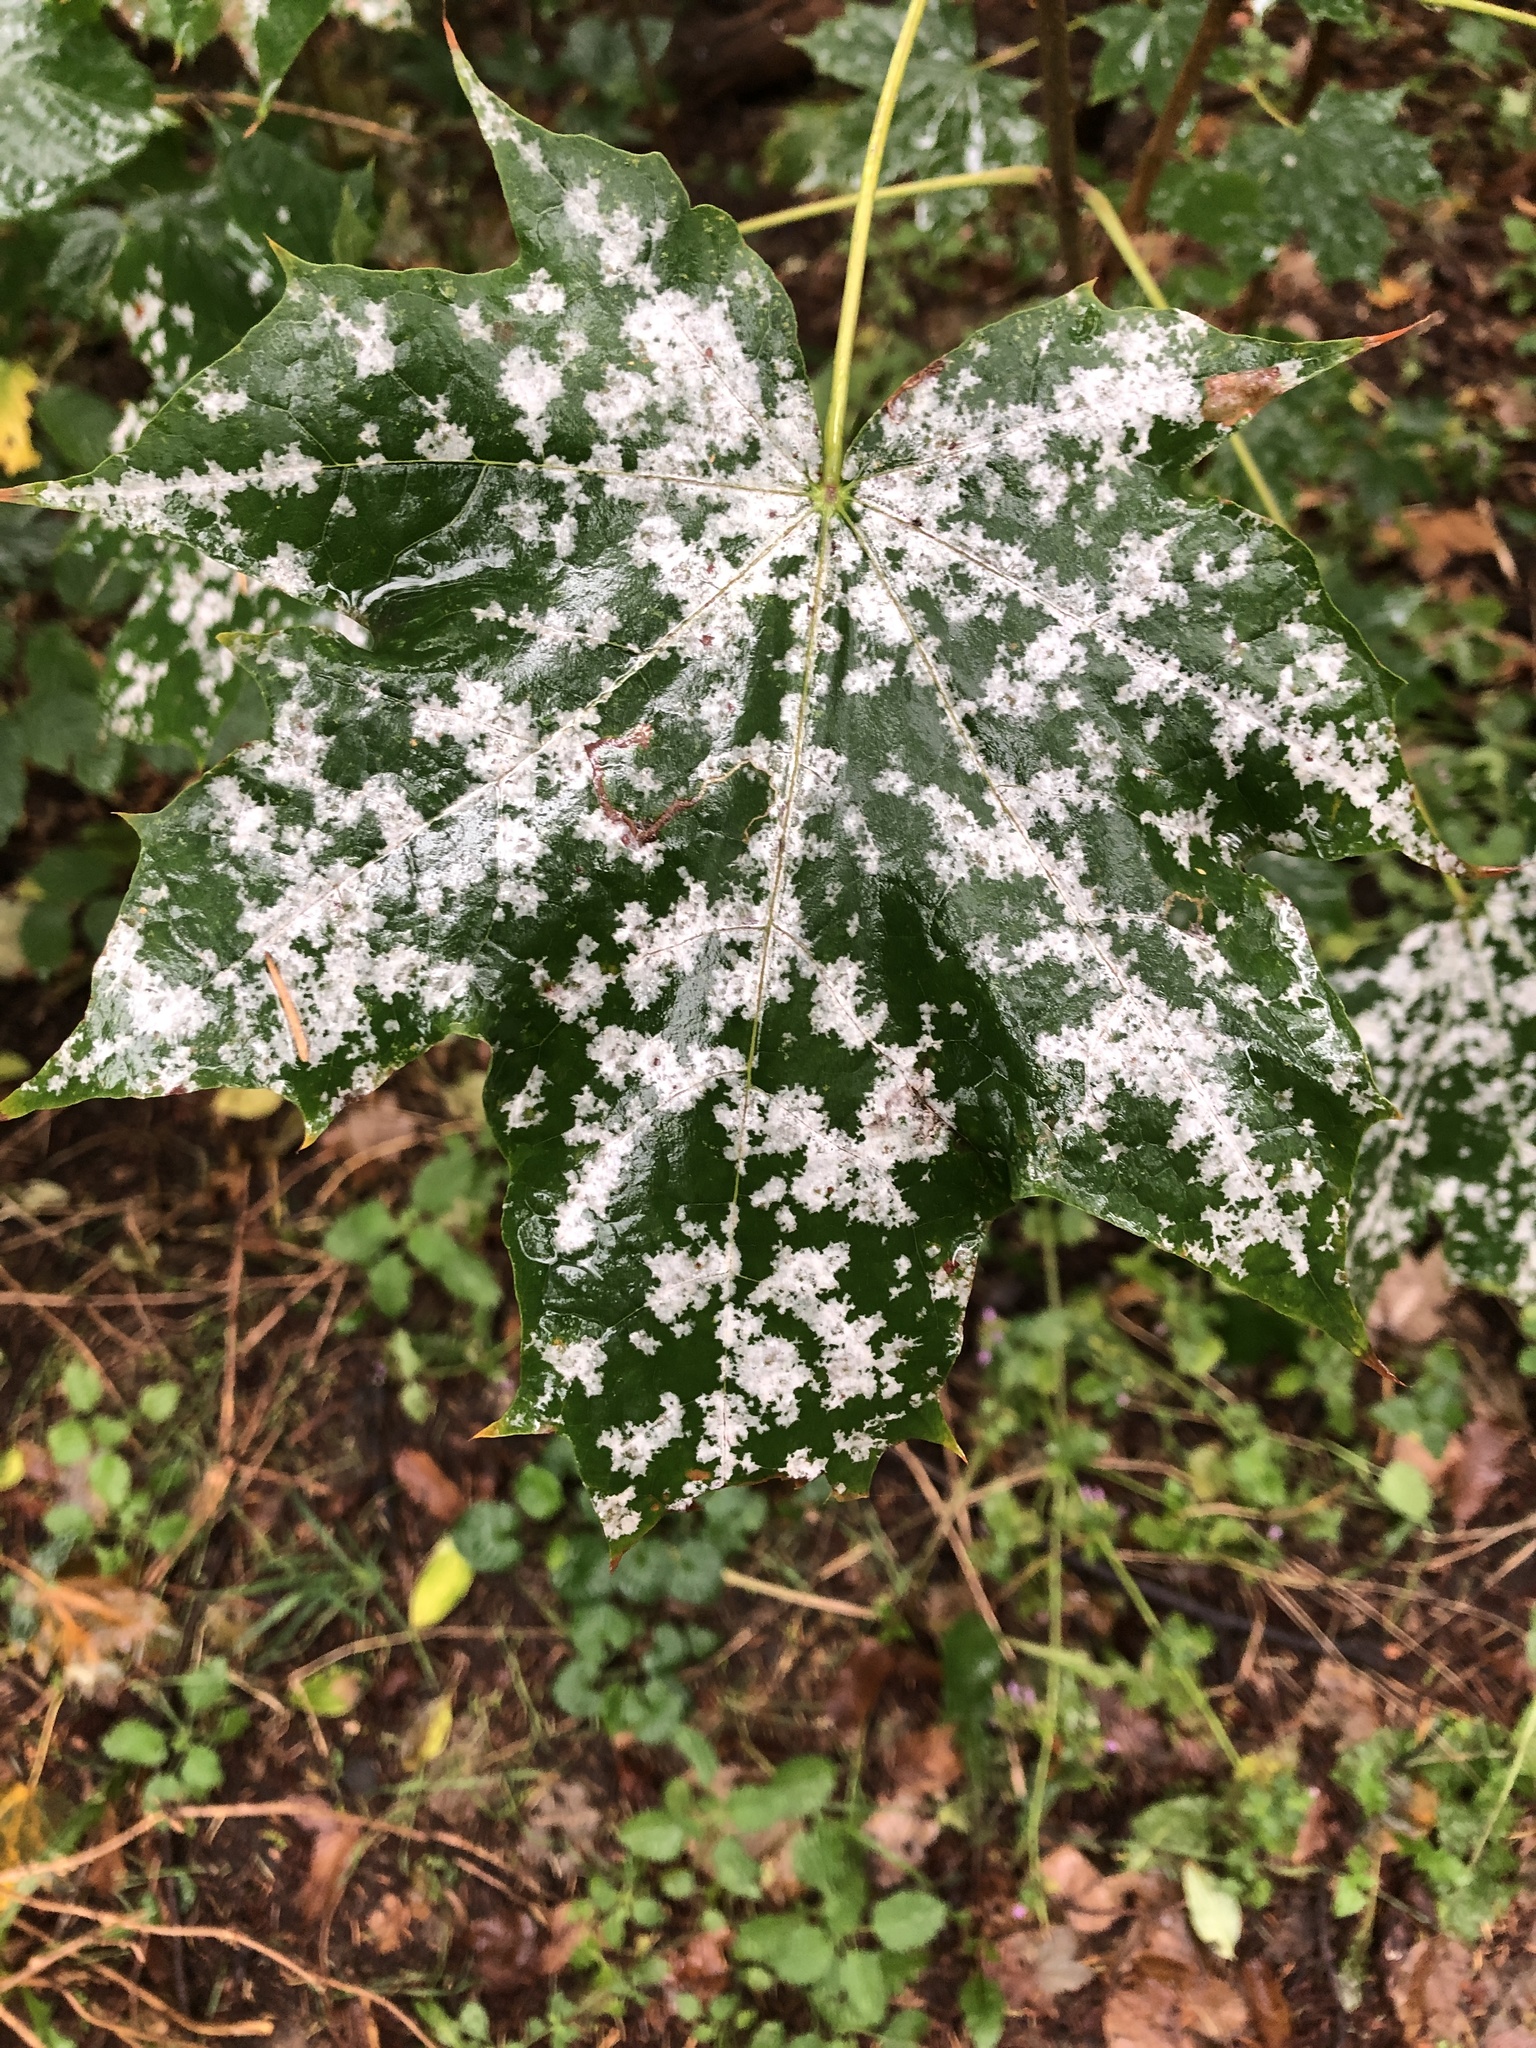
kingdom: Fungi
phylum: Ascomycota
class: Leotiomycetes
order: Helotiales
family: Erysiphaceae
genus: Sawadaea
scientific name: Sawadaea tulasnei
